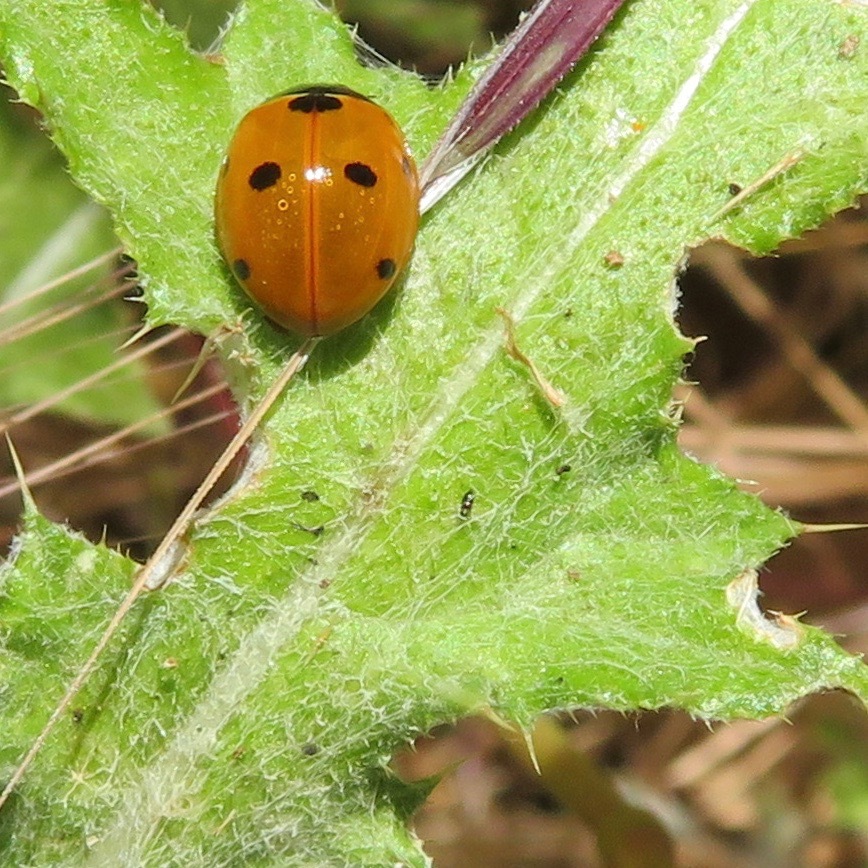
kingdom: Animalia
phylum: Arthropoda
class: Insecta
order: Coleoptera
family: Coccinellidae
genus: Coccinella
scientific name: Coccinella septempunctata
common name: Sevenspotted lady beetle
